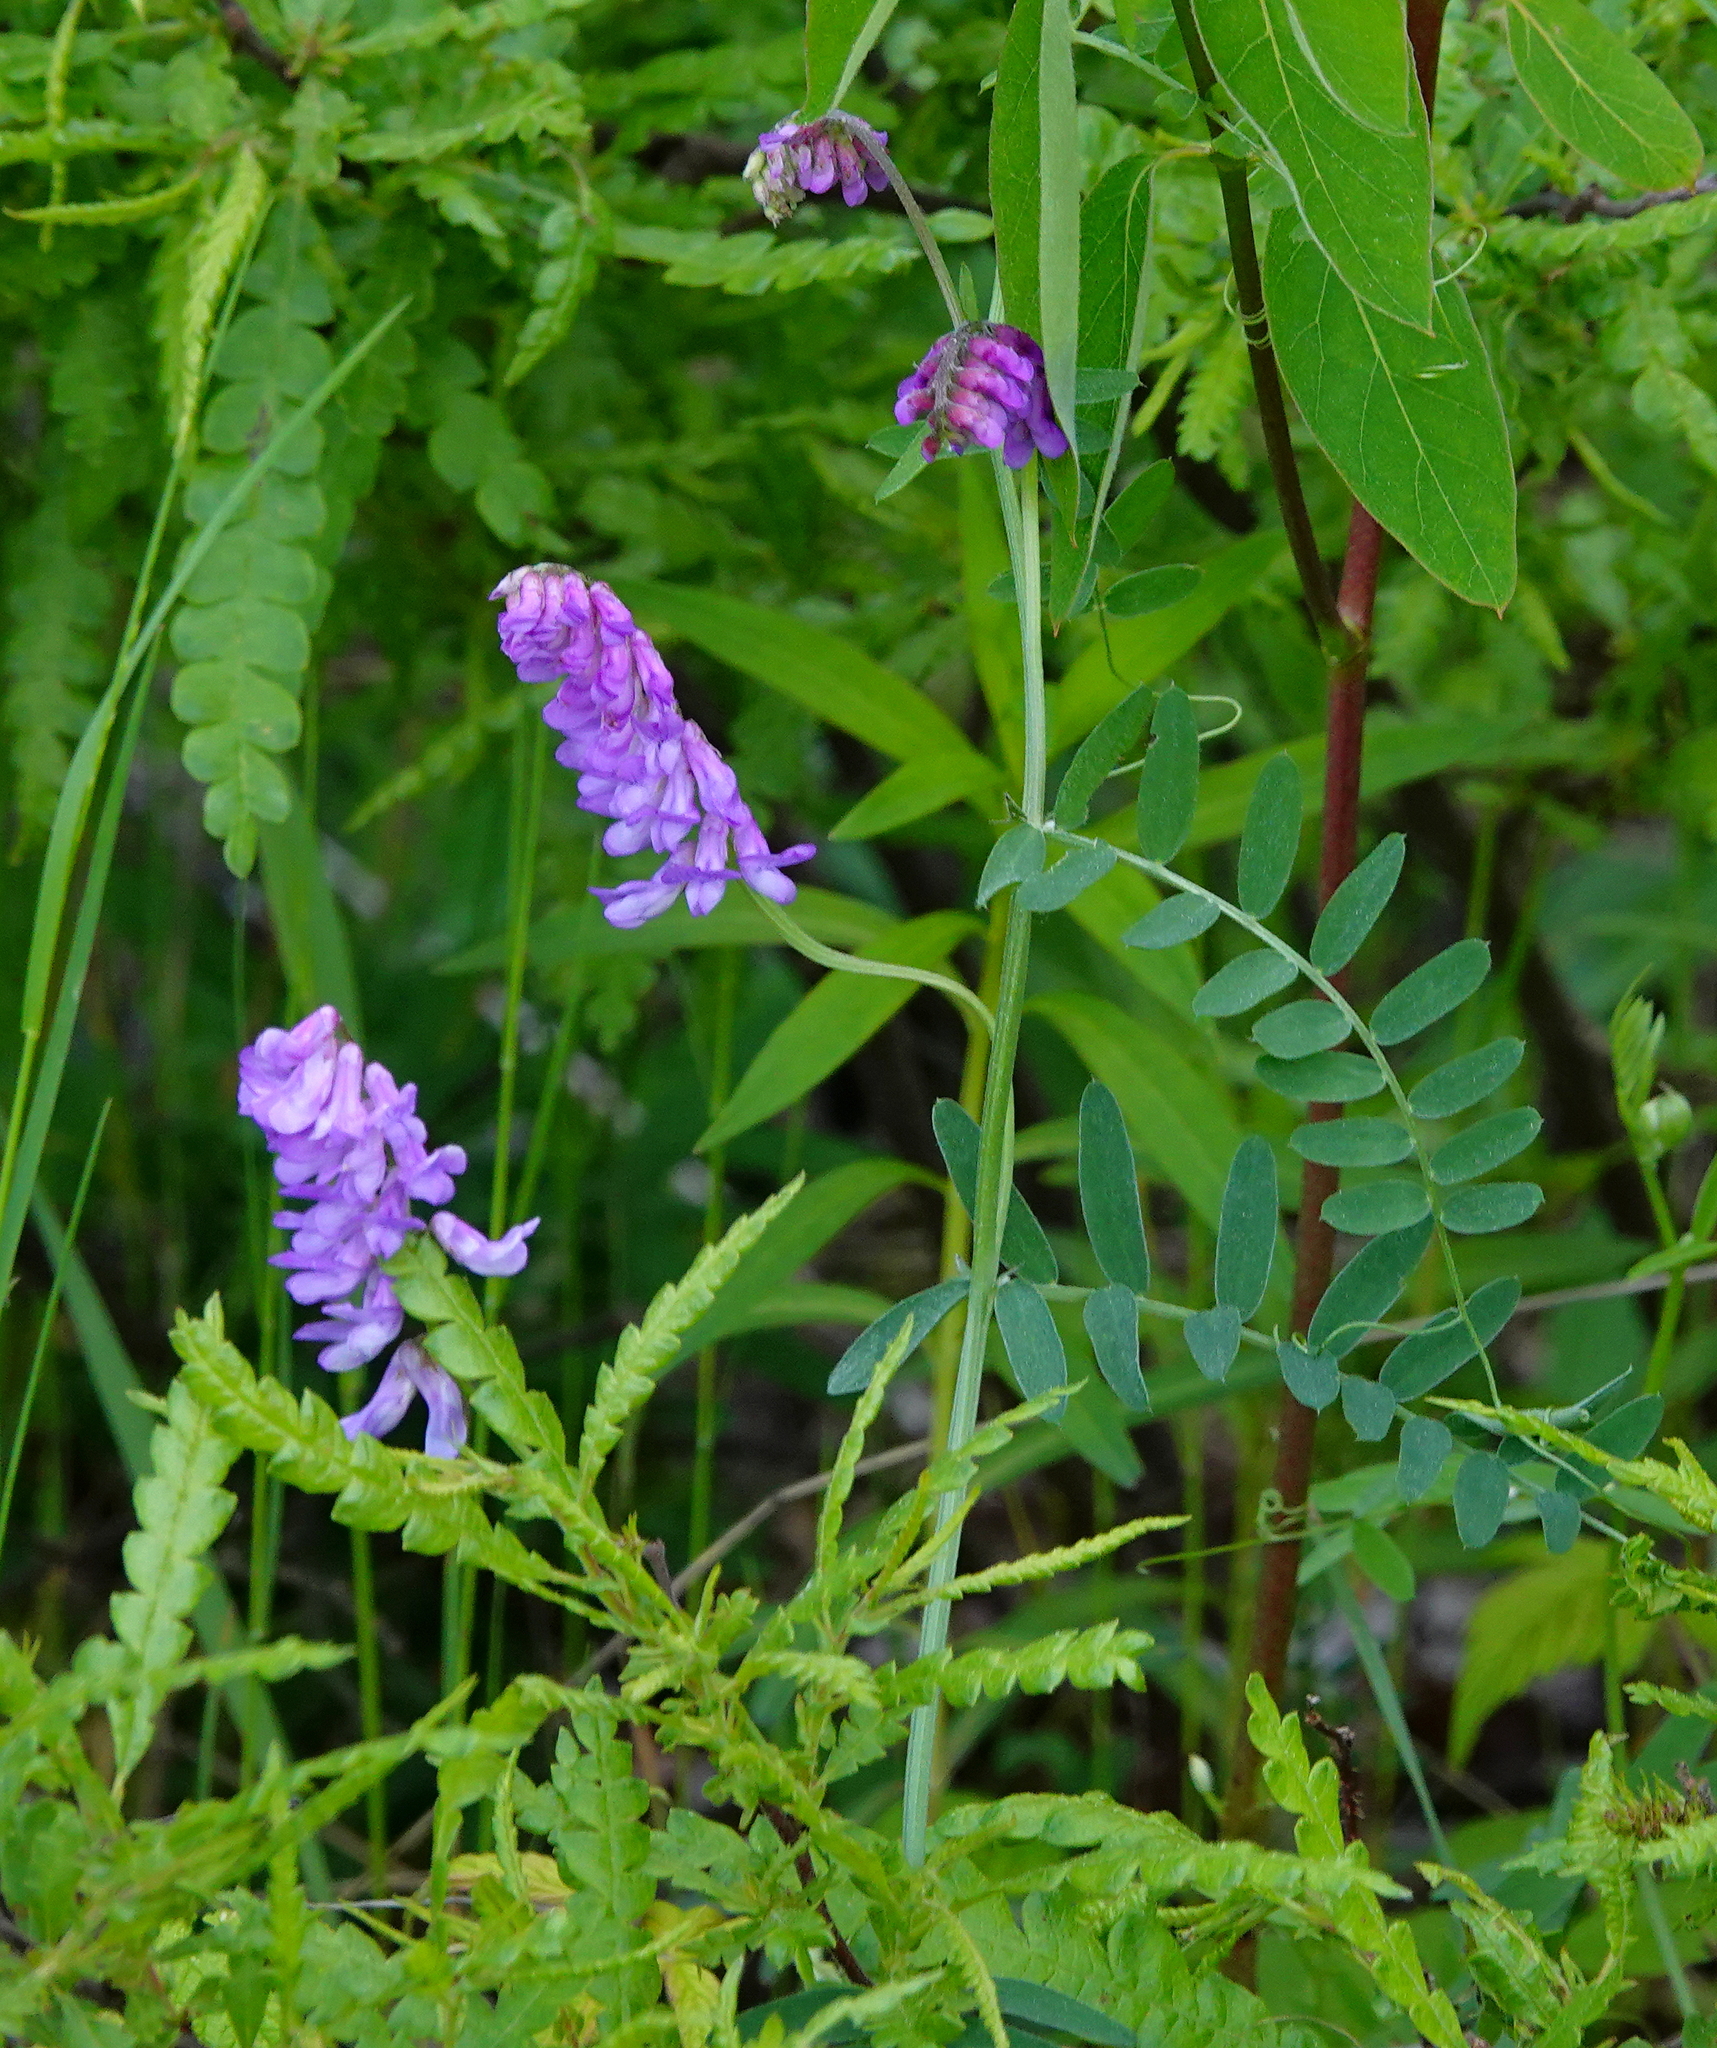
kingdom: Plantae
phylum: Tracheophyta
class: Magnoliopsida
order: Fabales
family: Fabaceae
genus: Vicia
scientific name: Vicia cracca
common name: Bird vetch
